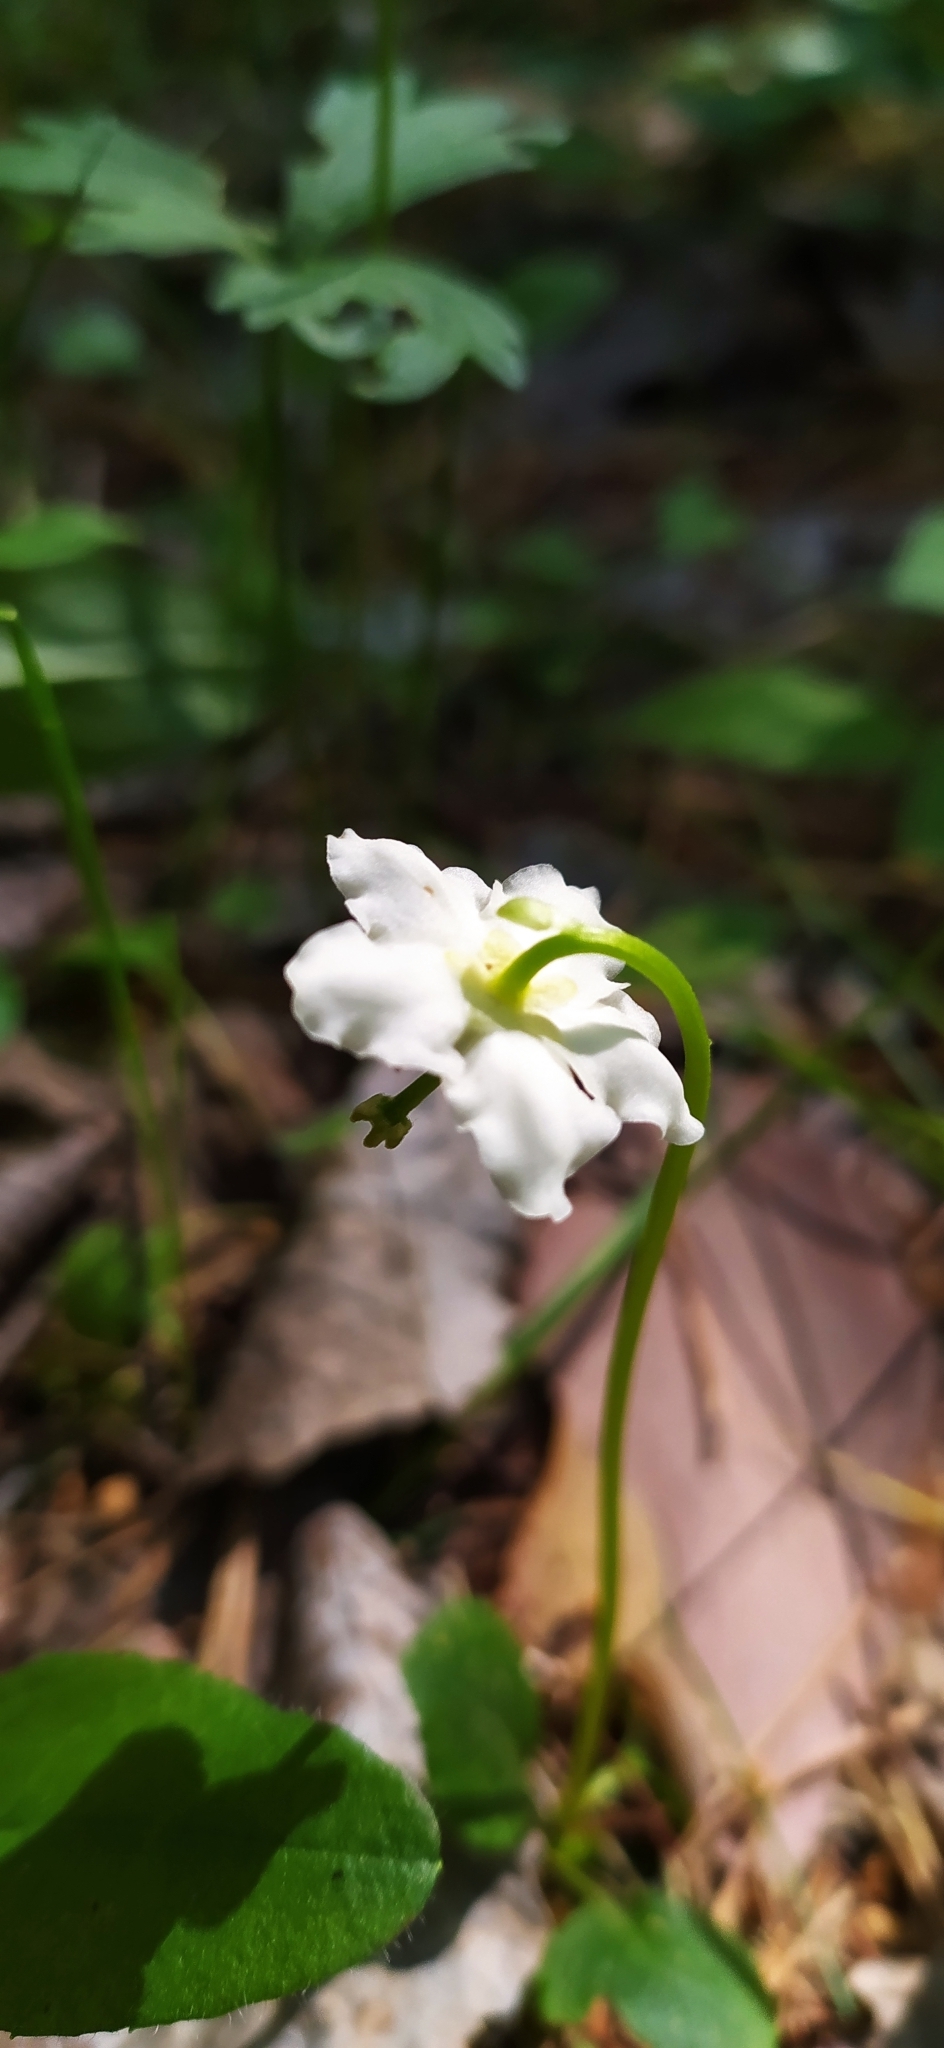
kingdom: Plantae
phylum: Tracheophyta
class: Magnoliopsida
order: Ericales
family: Ericaceae
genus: Moneses
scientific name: Moneses uniflora
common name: One-flowered wintergreen
